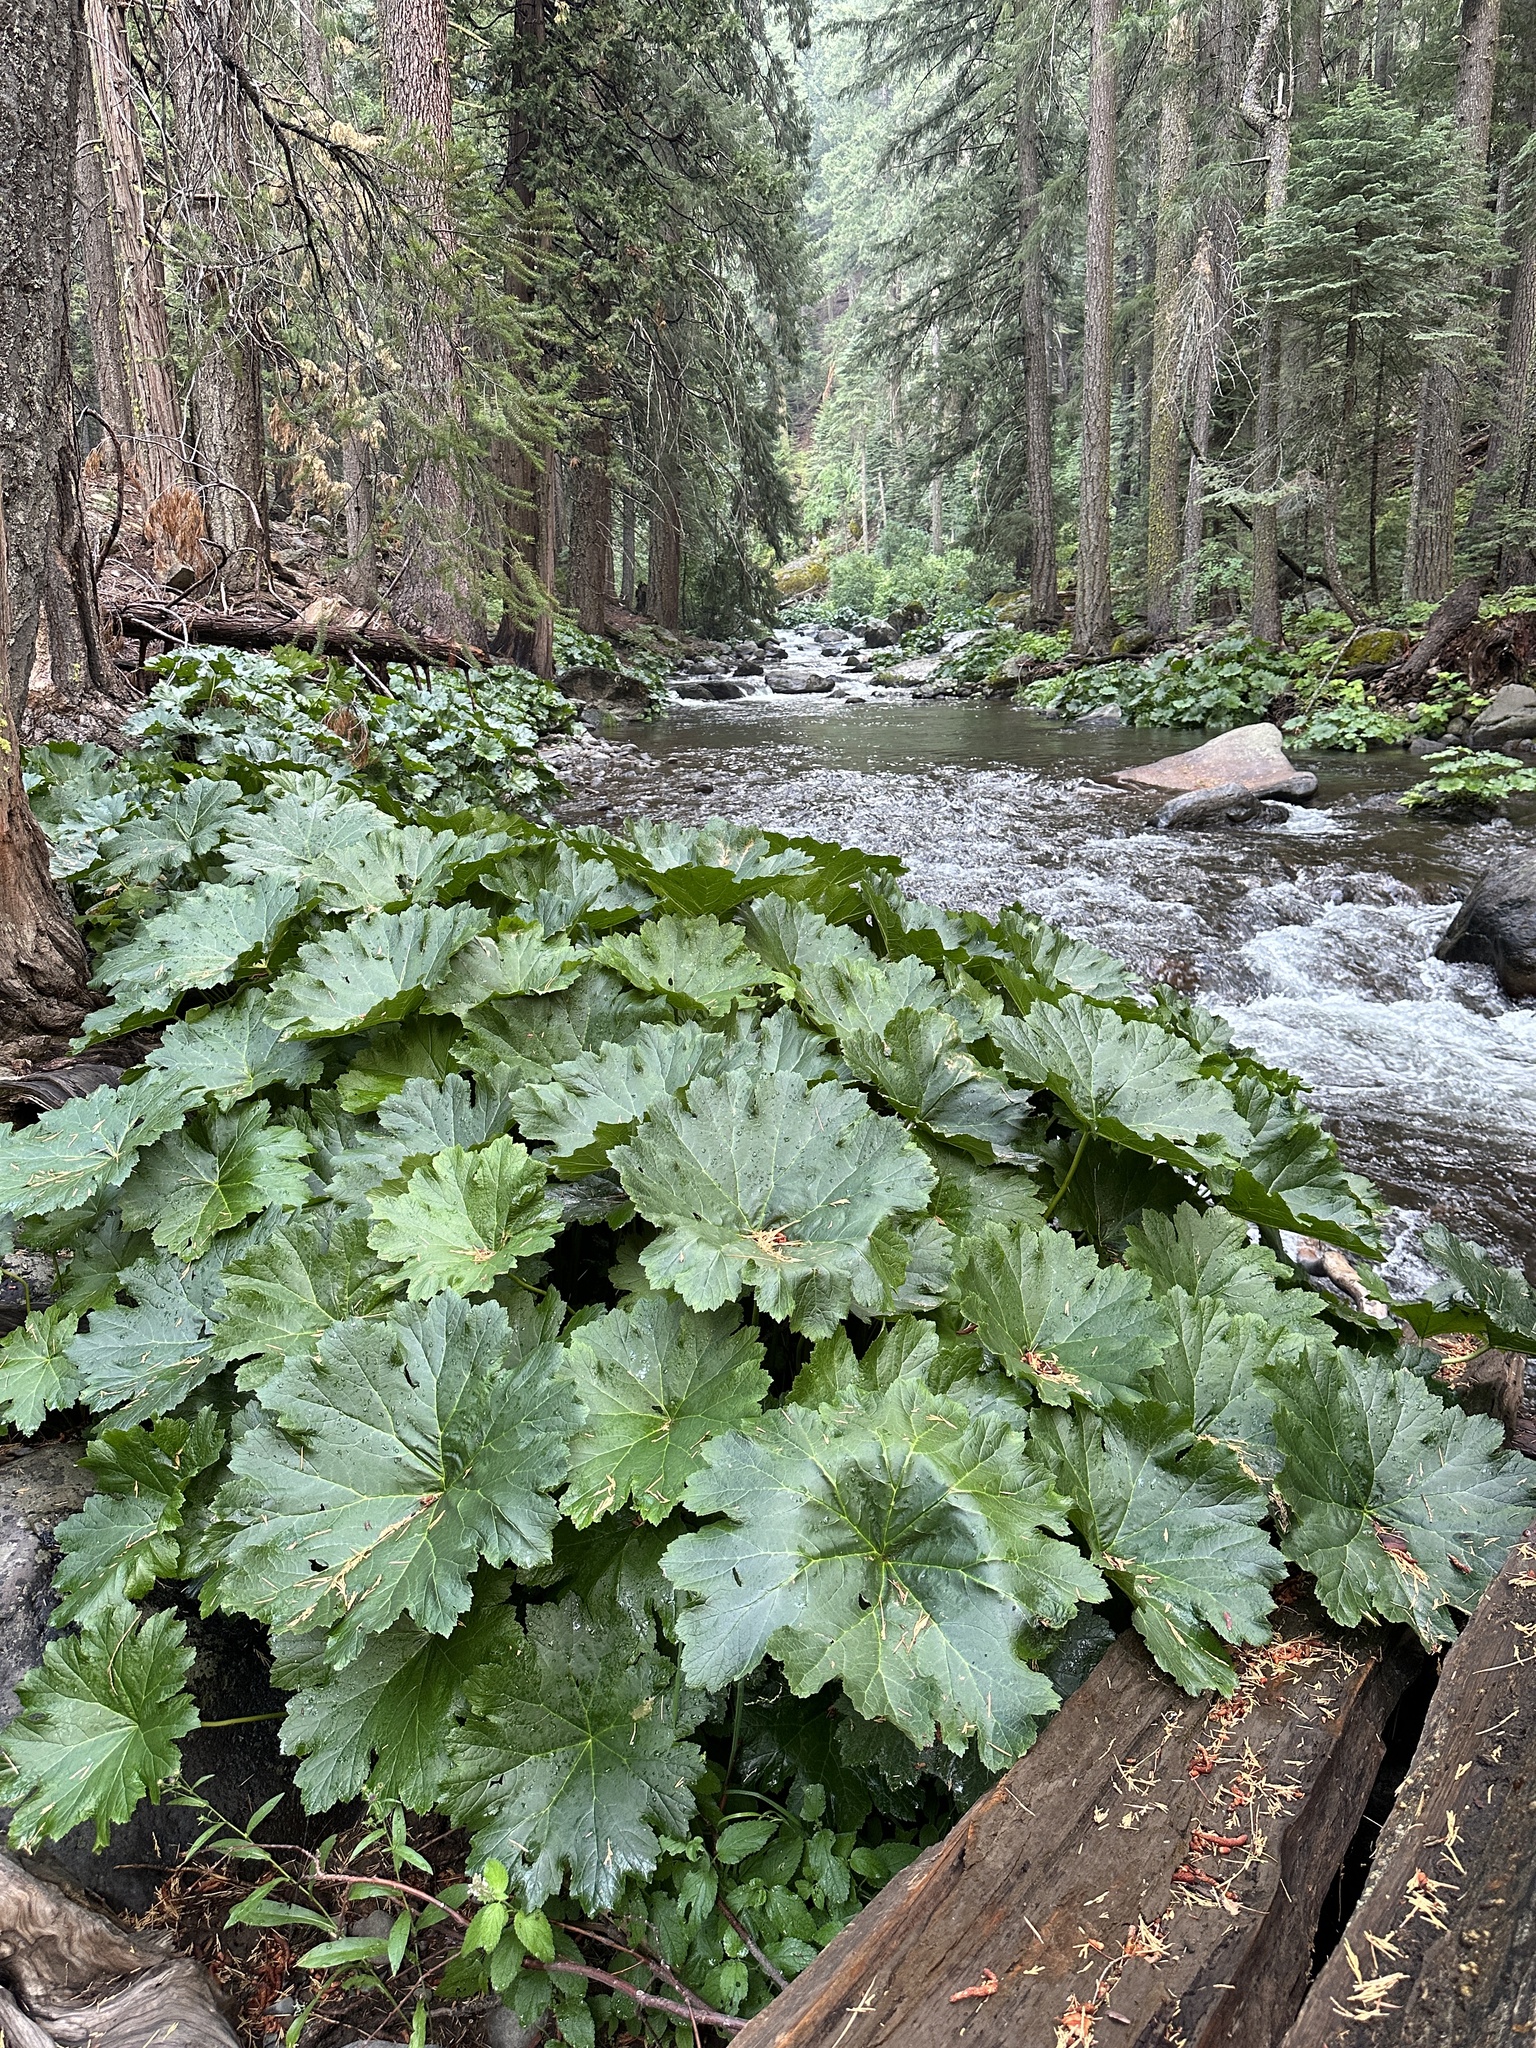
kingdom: Plantae
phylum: Tracheophyta
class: Magnoliopsida
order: Saxifragales
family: Saxifragaceae
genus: Darmera
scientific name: Darmera peltata
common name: Indian-rhubarb
